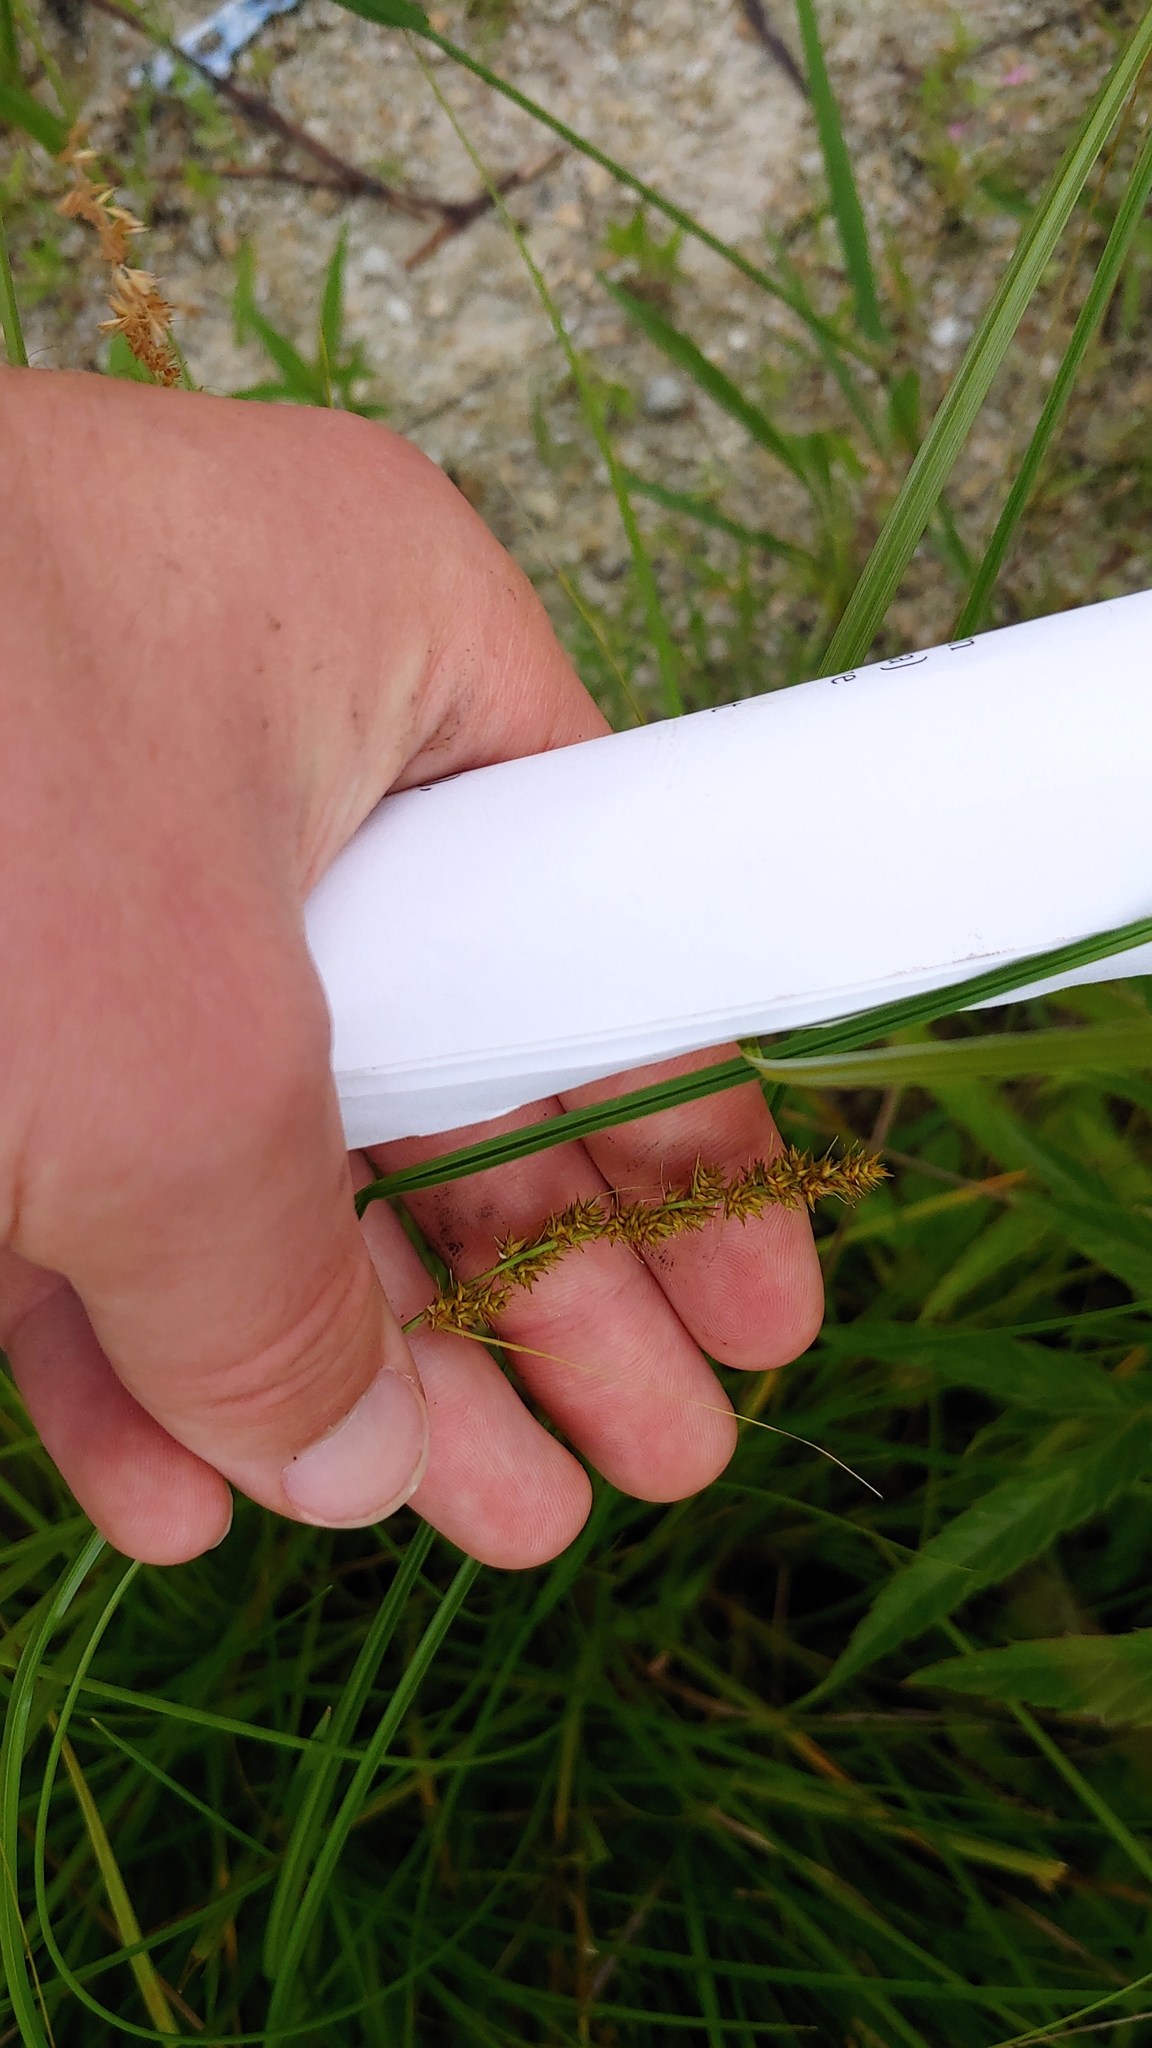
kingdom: Plantae
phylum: Tracheophyta
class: Liliopsida
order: Poales
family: Cyperaceae
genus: Carex
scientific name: Carex vulpinoidea
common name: American fox-sedge
